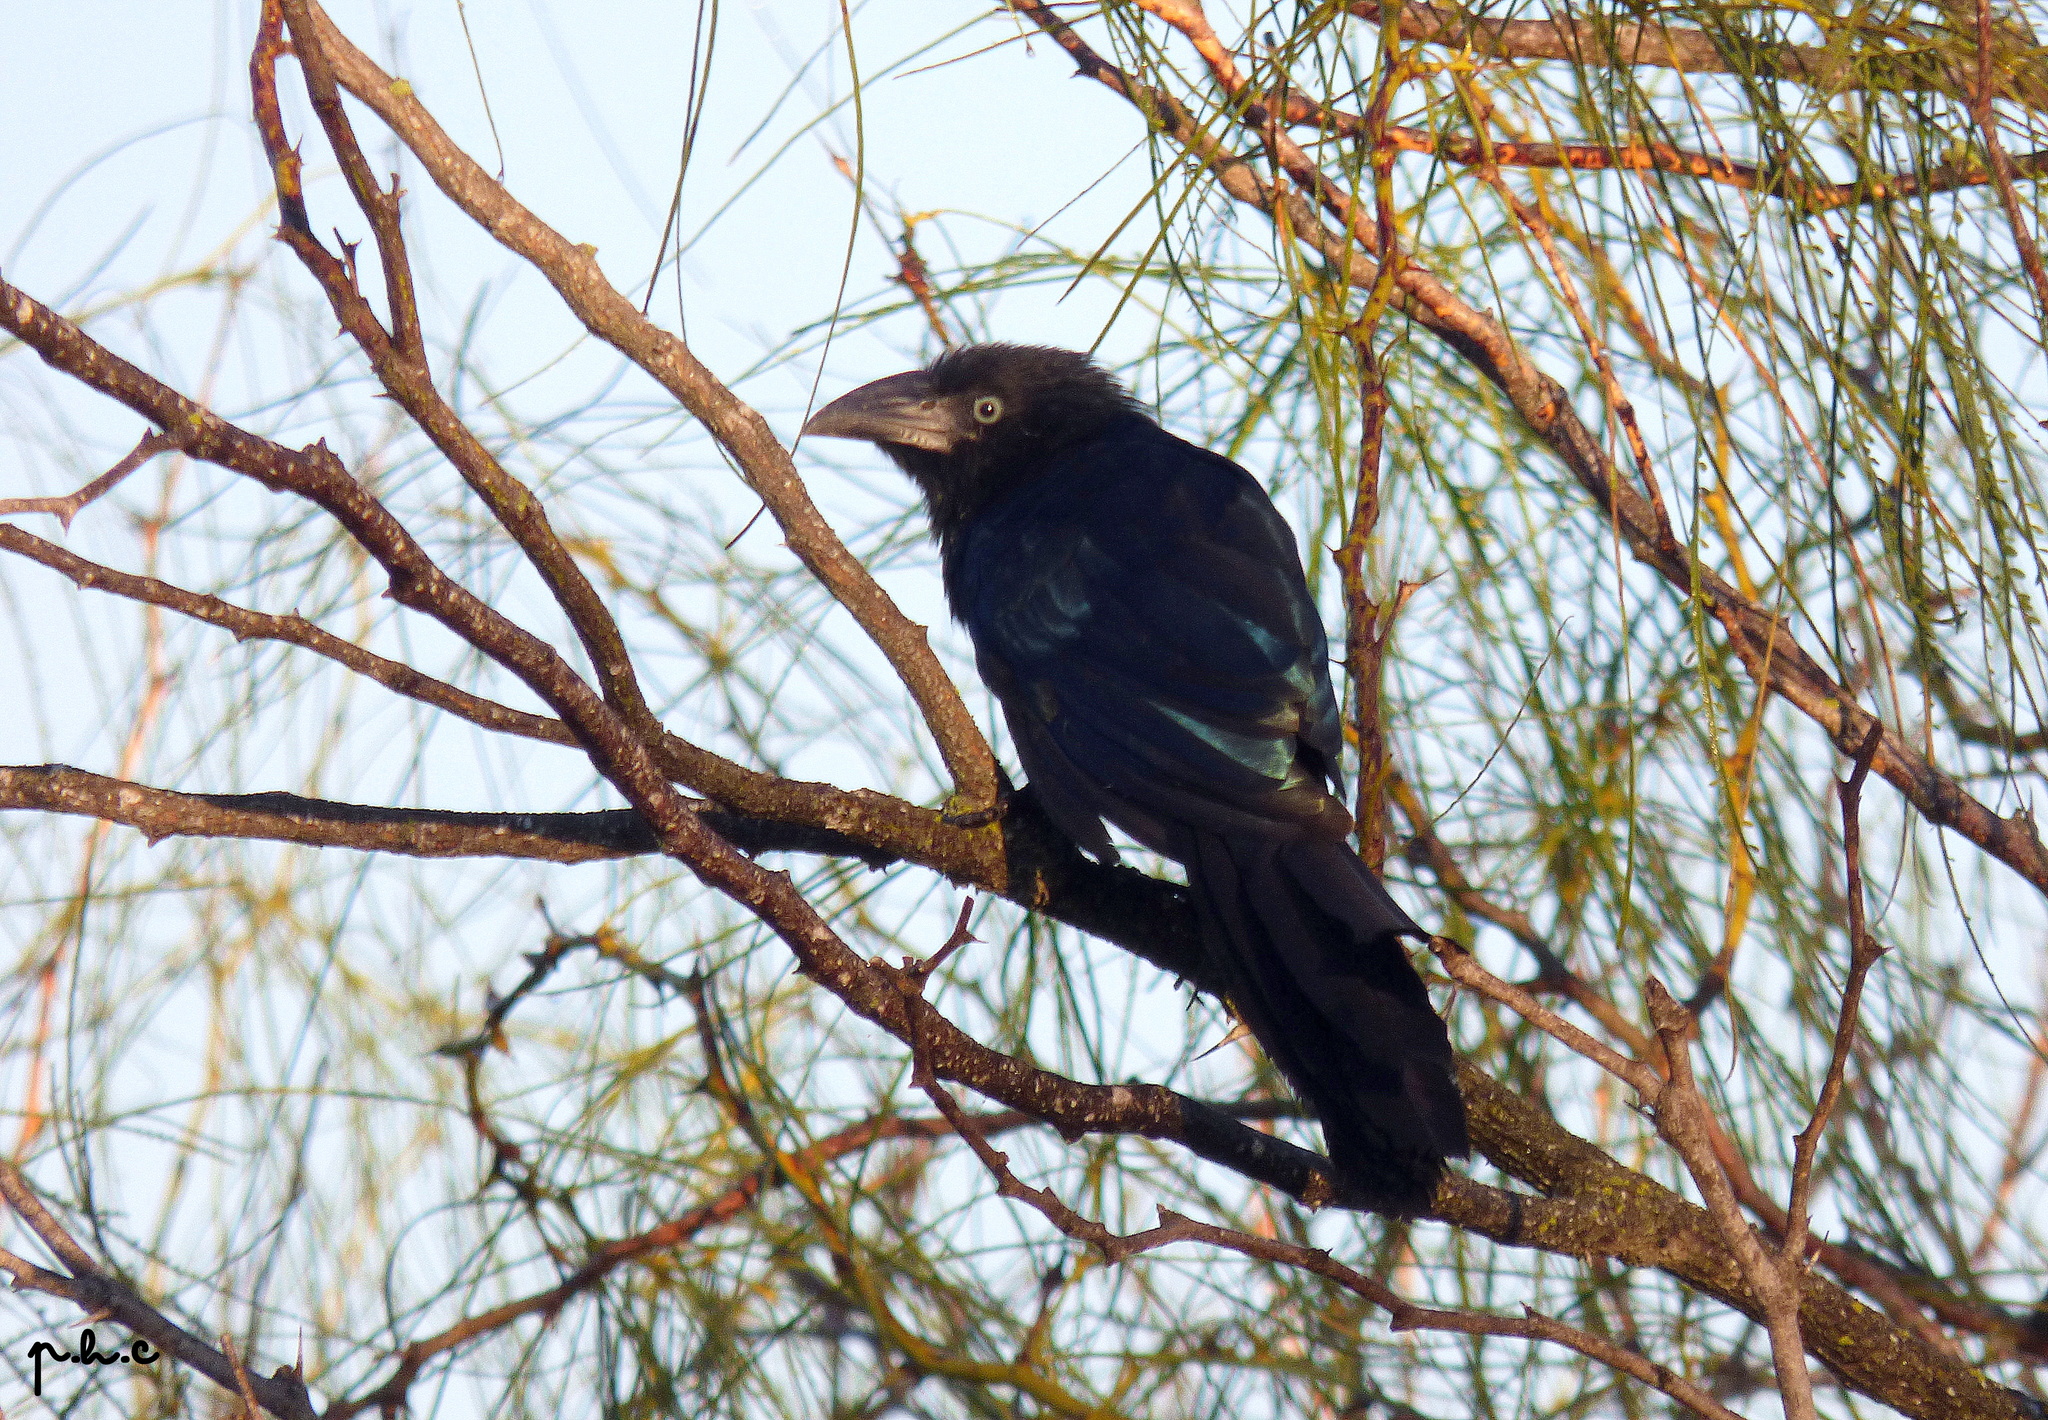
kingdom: Animalia
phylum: Chordata
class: Aves
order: Cuculiformes
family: Cuculidae
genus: Crotophaga
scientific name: Crotophaga major
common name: Greater ani
